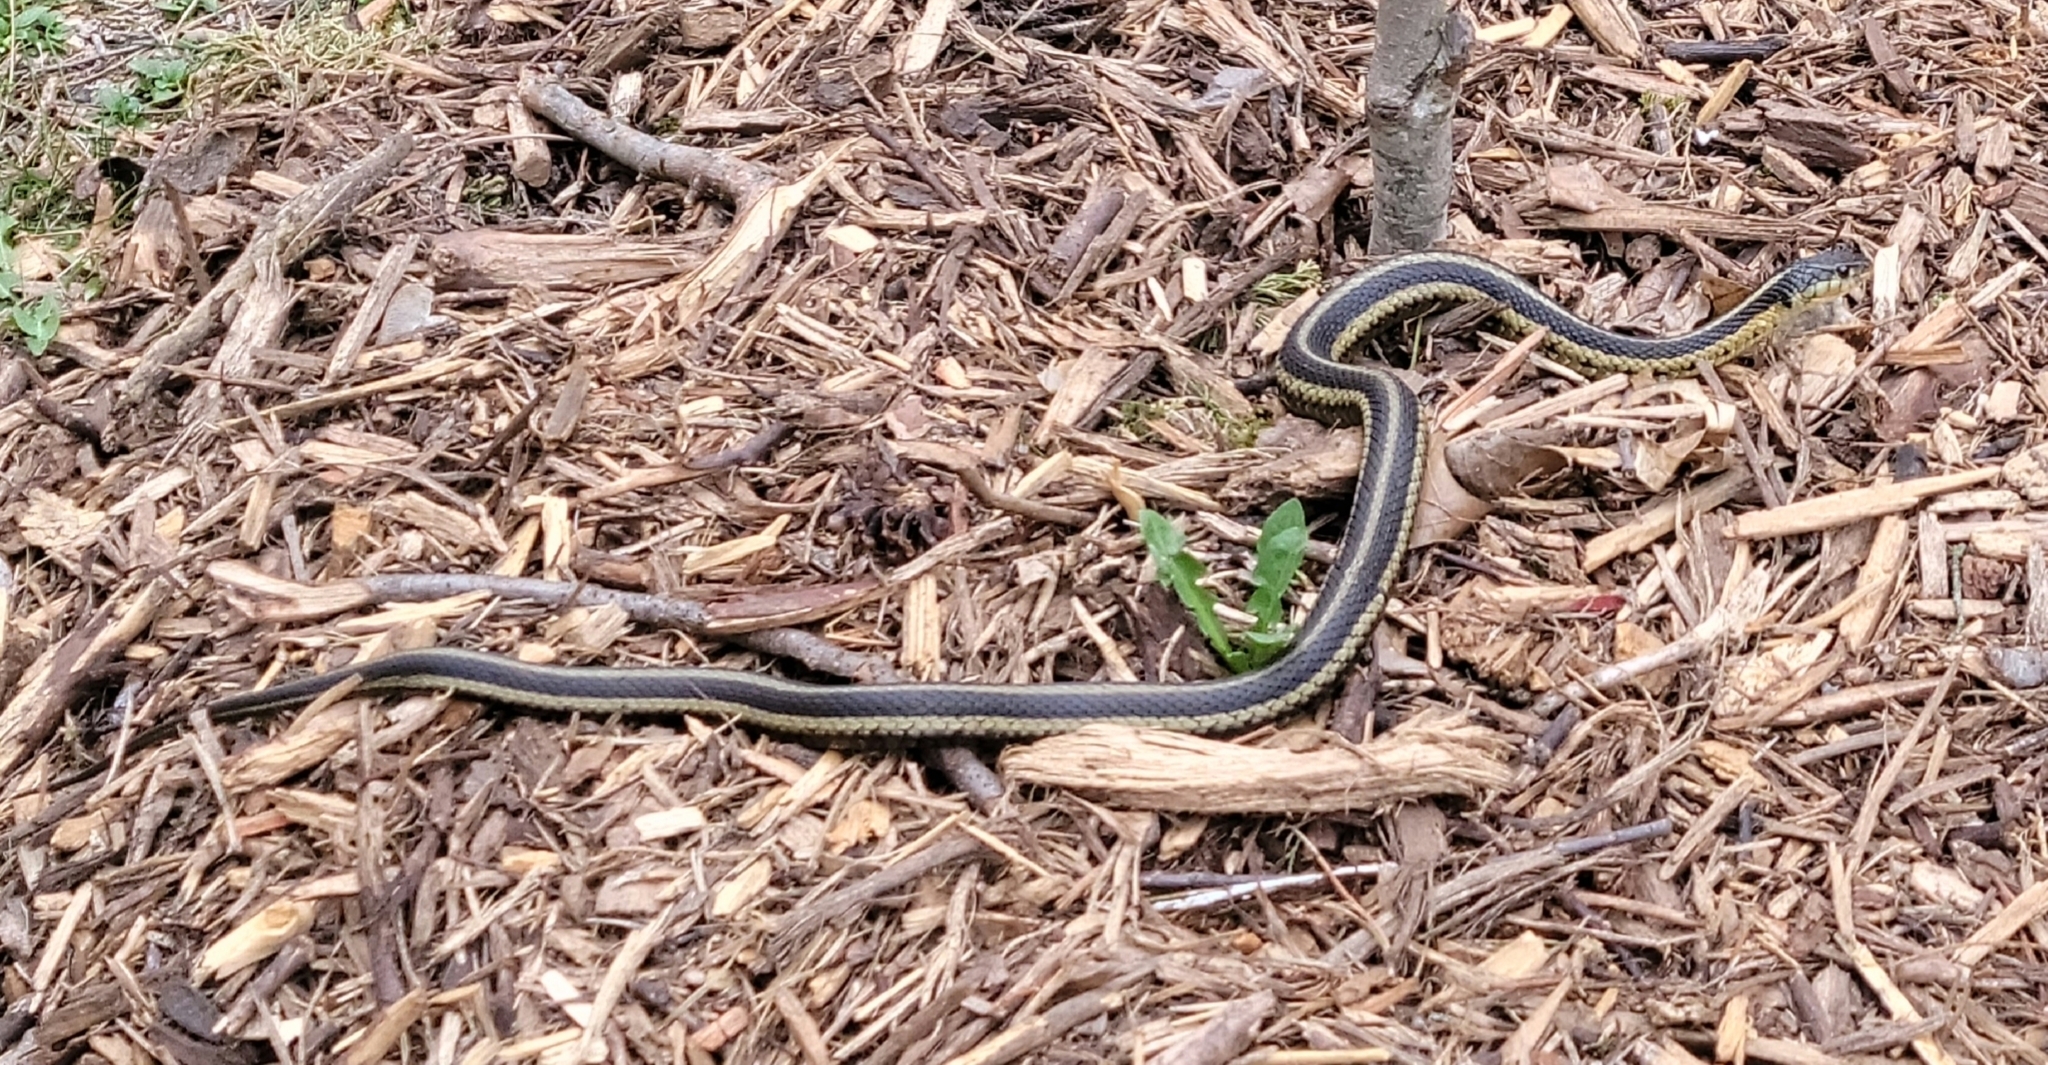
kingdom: Animalia
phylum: Chordata
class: Squamata
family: Colubridae
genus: Thamnophis
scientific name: Thamnophis sirtalis
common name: Common garter snake
